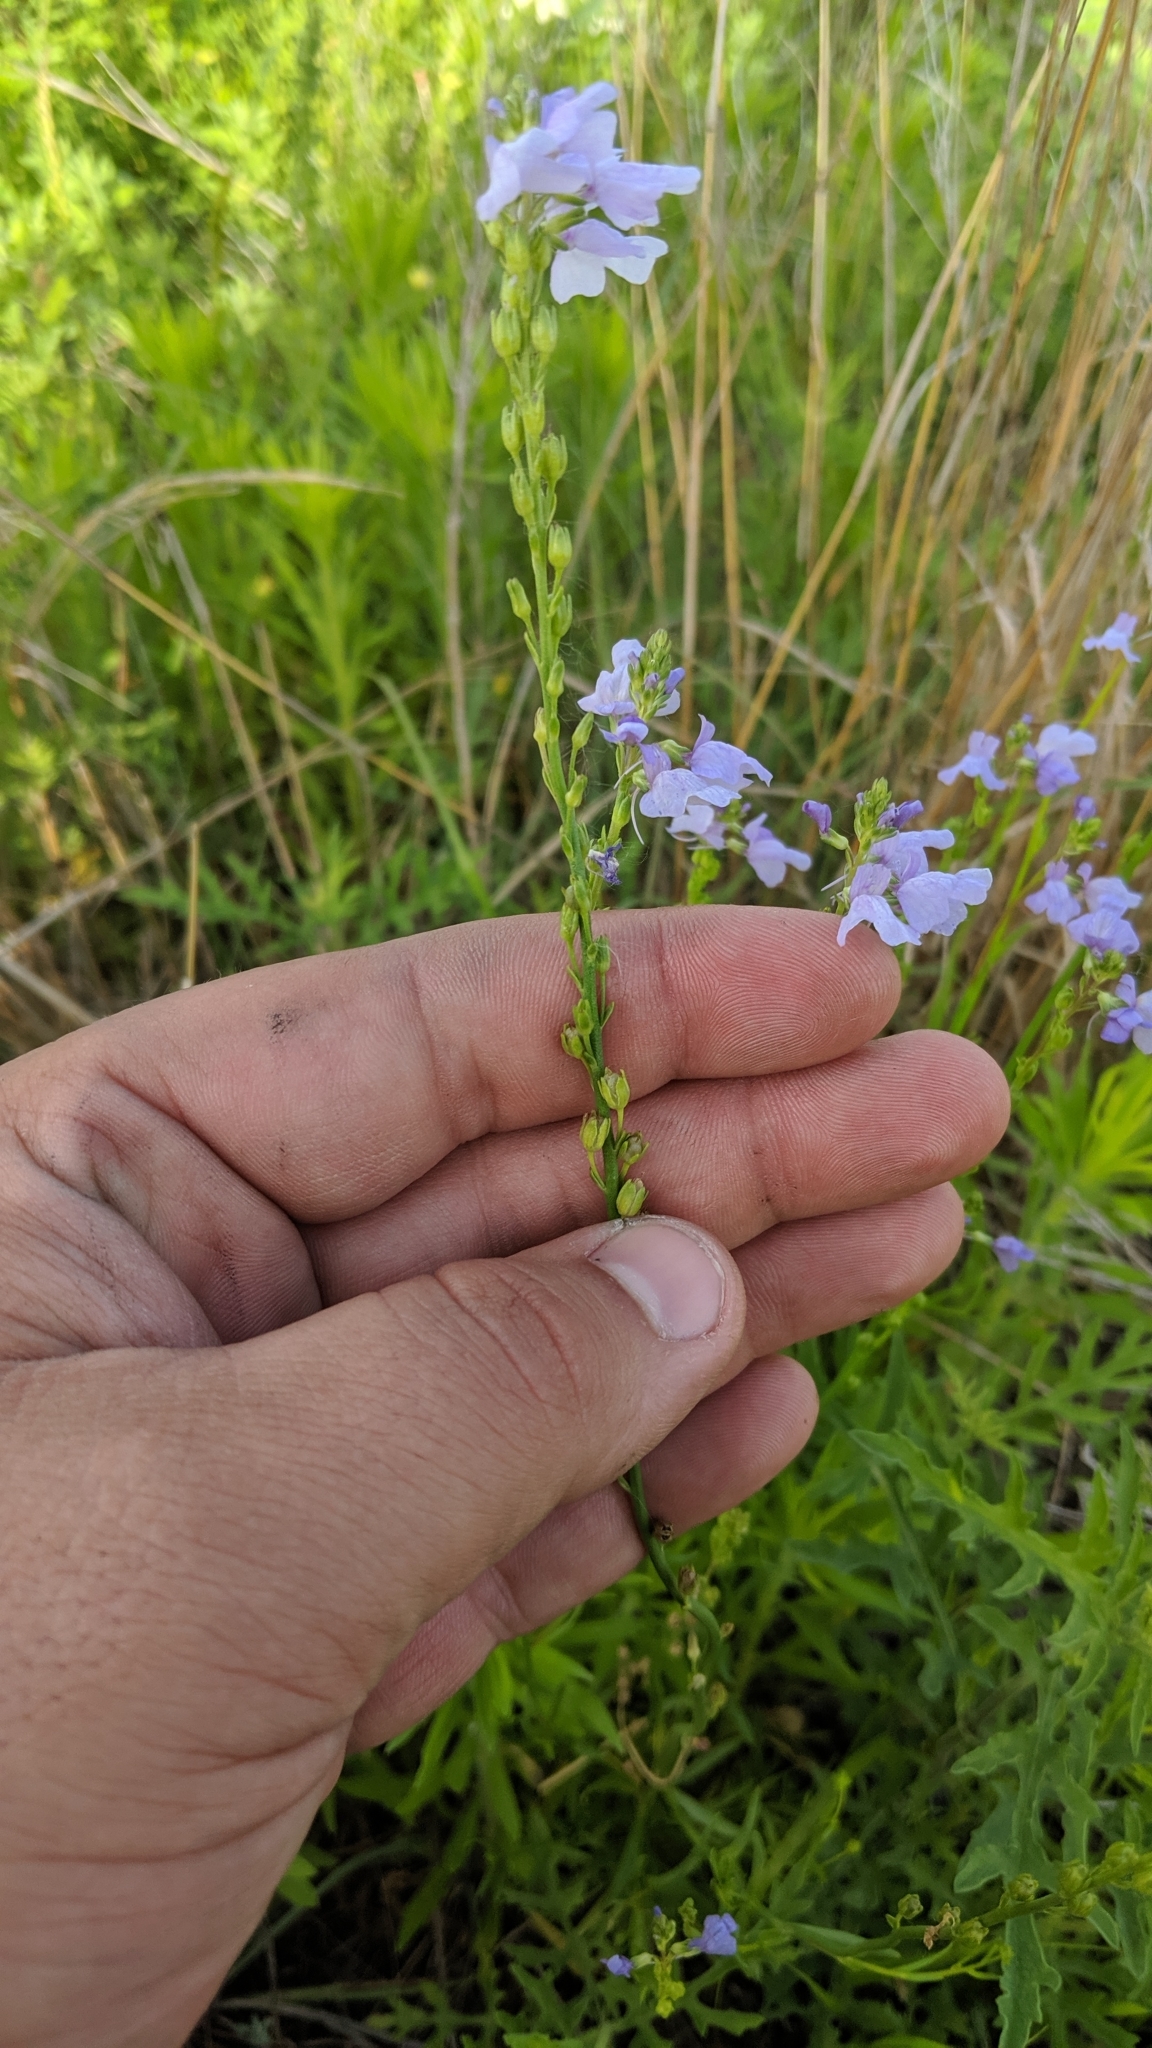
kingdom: Plantae
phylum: Tracheophyta
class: Magnoliopsida
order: Lamiales
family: Plantaginaceae
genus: Nuttallanthus
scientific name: Nuttallanthus texanus
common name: Texas toadflax
